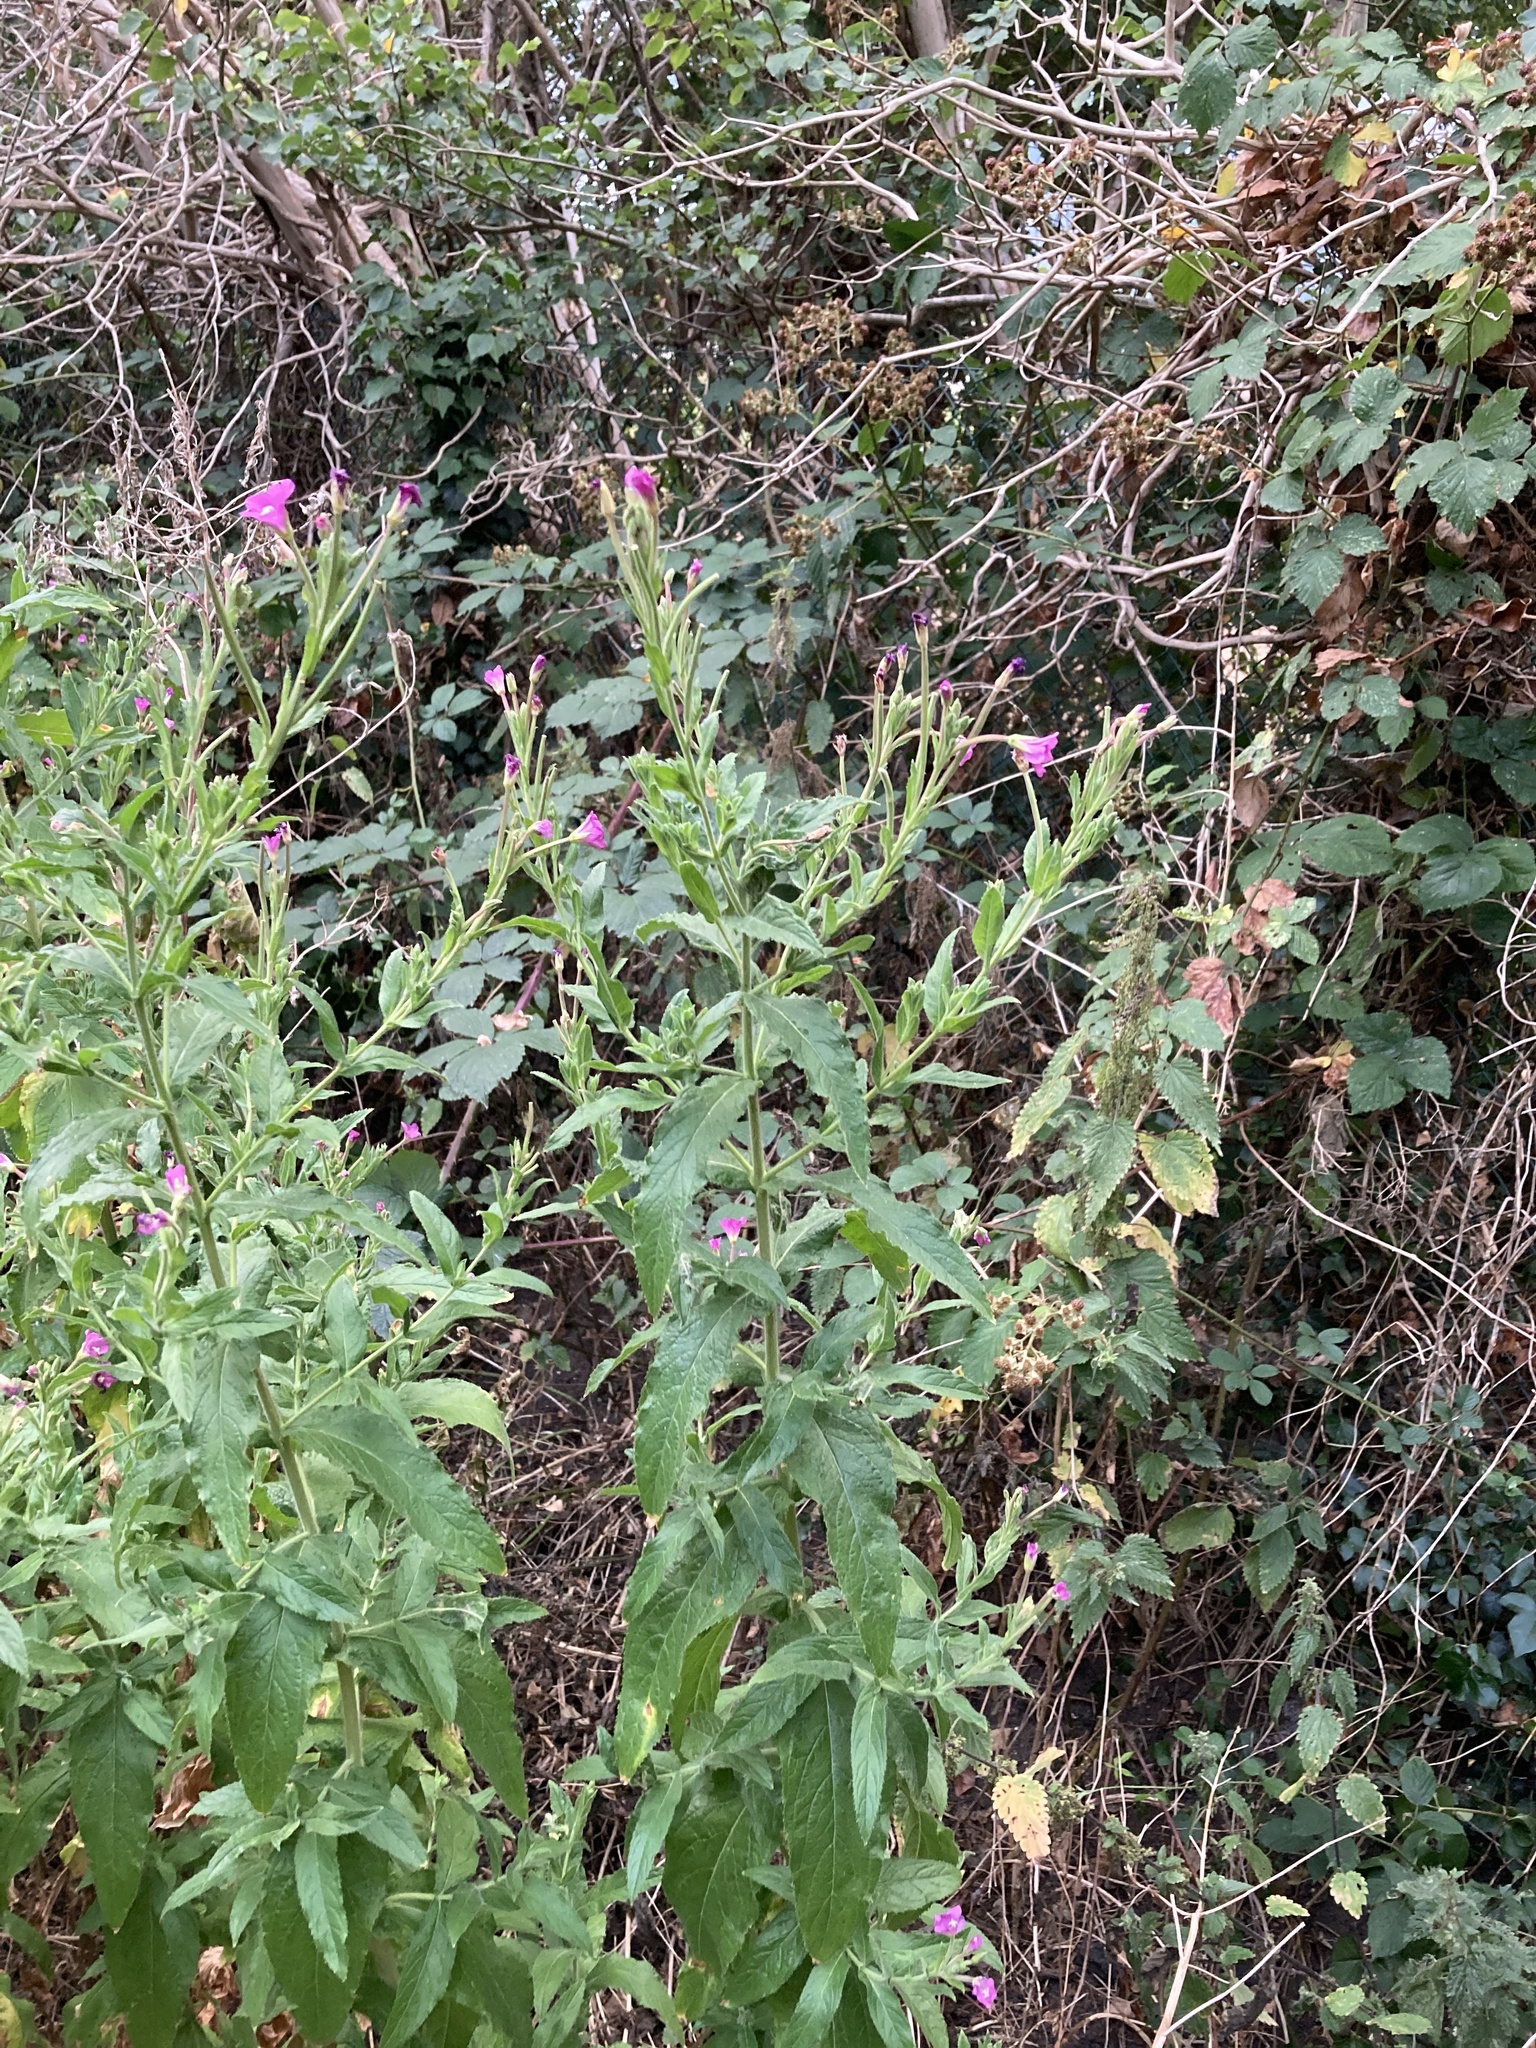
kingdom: Plantae
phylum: Tracheophyta
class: Magnoliopsida
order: Myrtales
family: Onagraceae
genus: Epilobium
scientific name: Epilobium hirsutum
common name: Great willowherb
